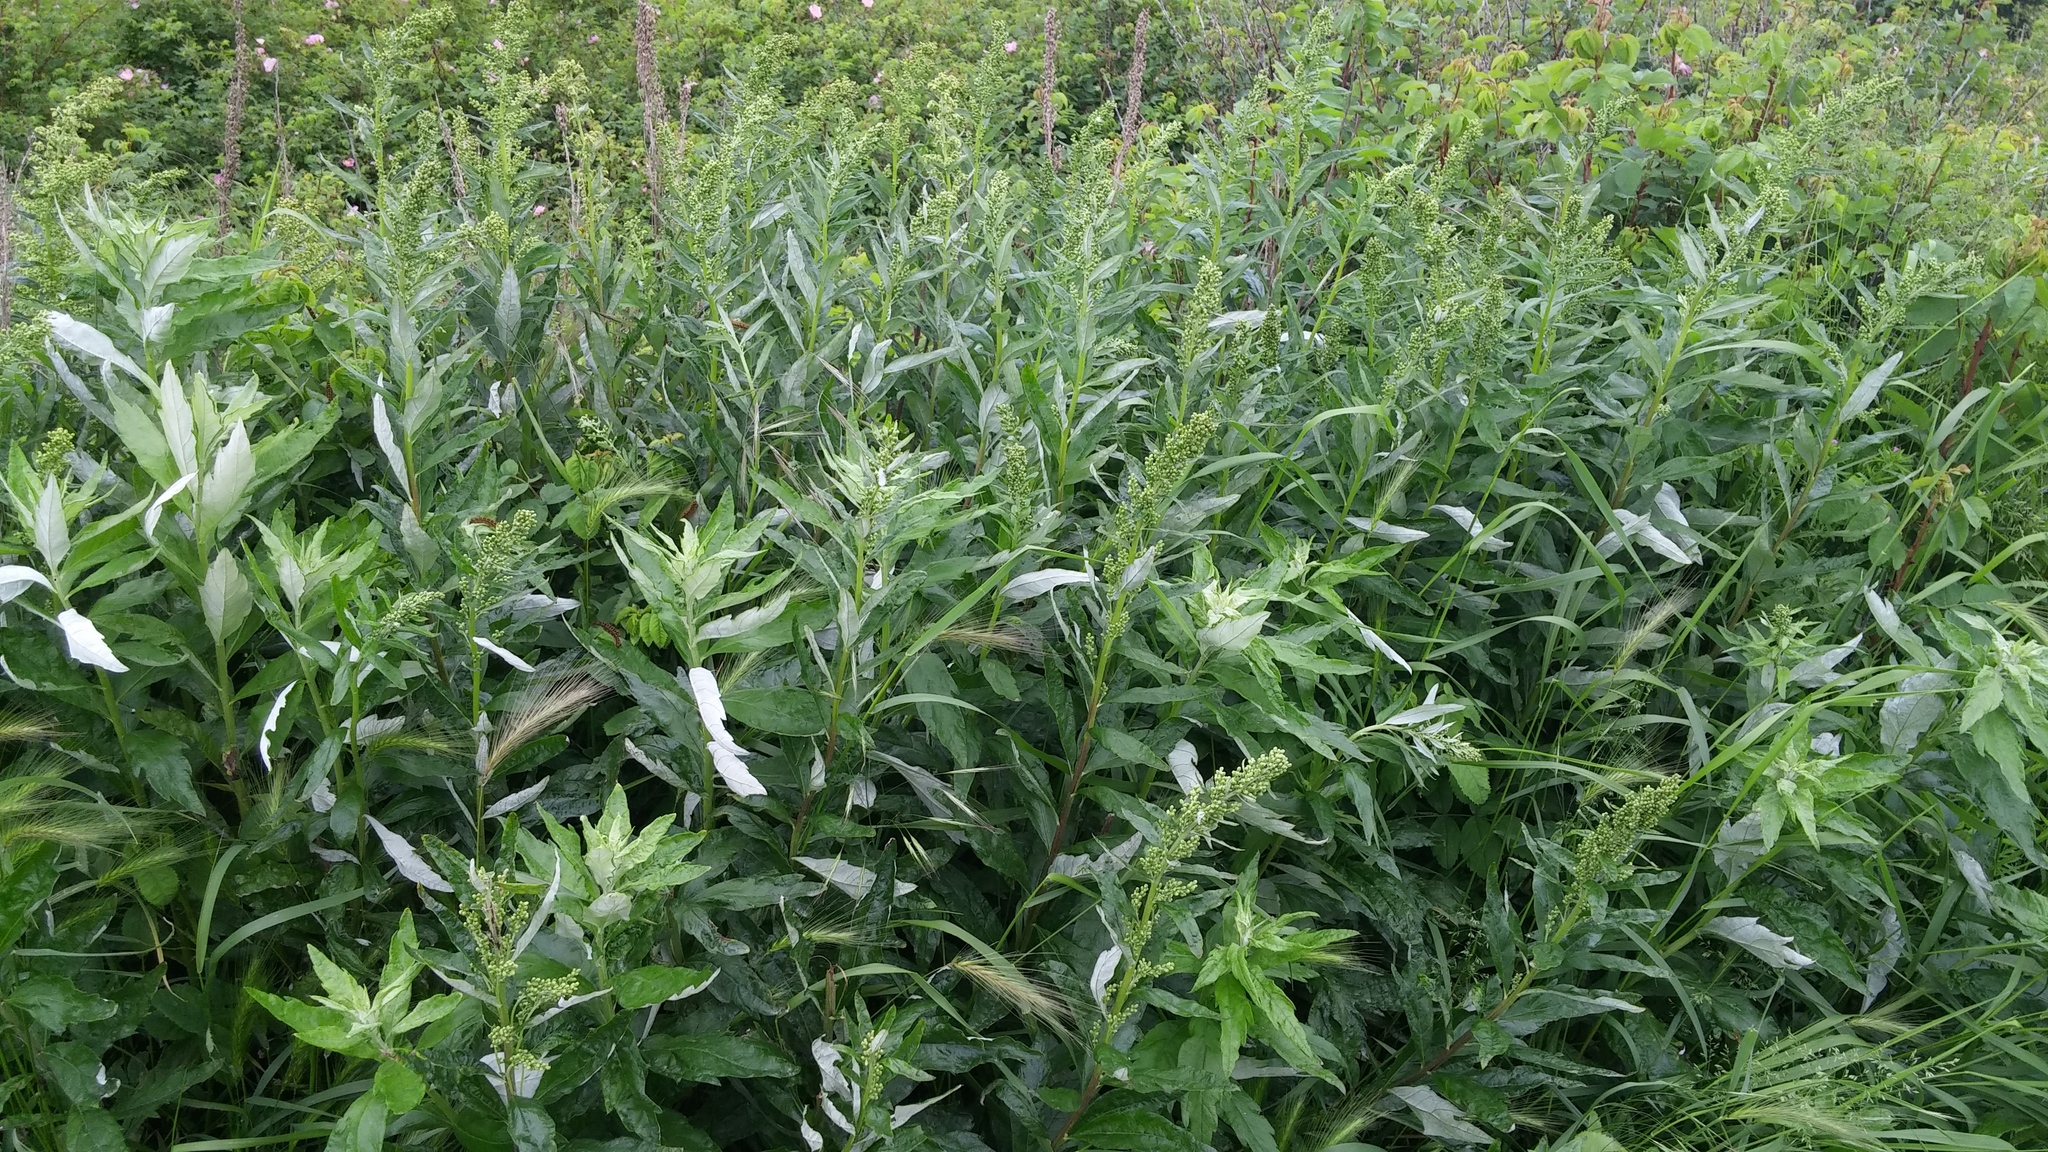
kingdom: Plantae
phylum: Tracheophyta
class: Magnoliopsida
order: Asterales
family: Asteraceae
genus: Artemisia
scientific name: Artemisia suksdorfii
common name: Suksdorf sagewort
